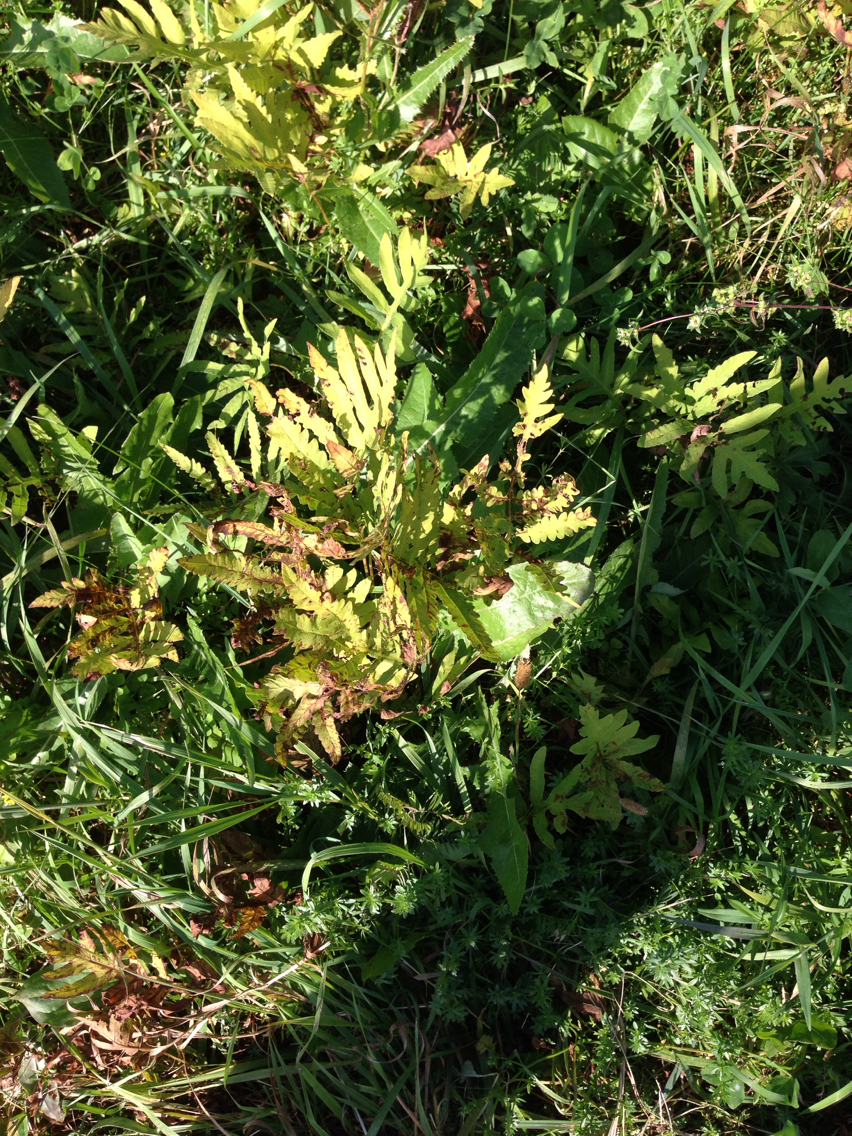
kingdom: Plantae
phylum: Tracheophyta
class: Polypodiopsida
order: Polypodiales
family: Onocleaceae
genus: Onoclea
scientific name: Onoclea sensibilis
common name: Sensitive fern
